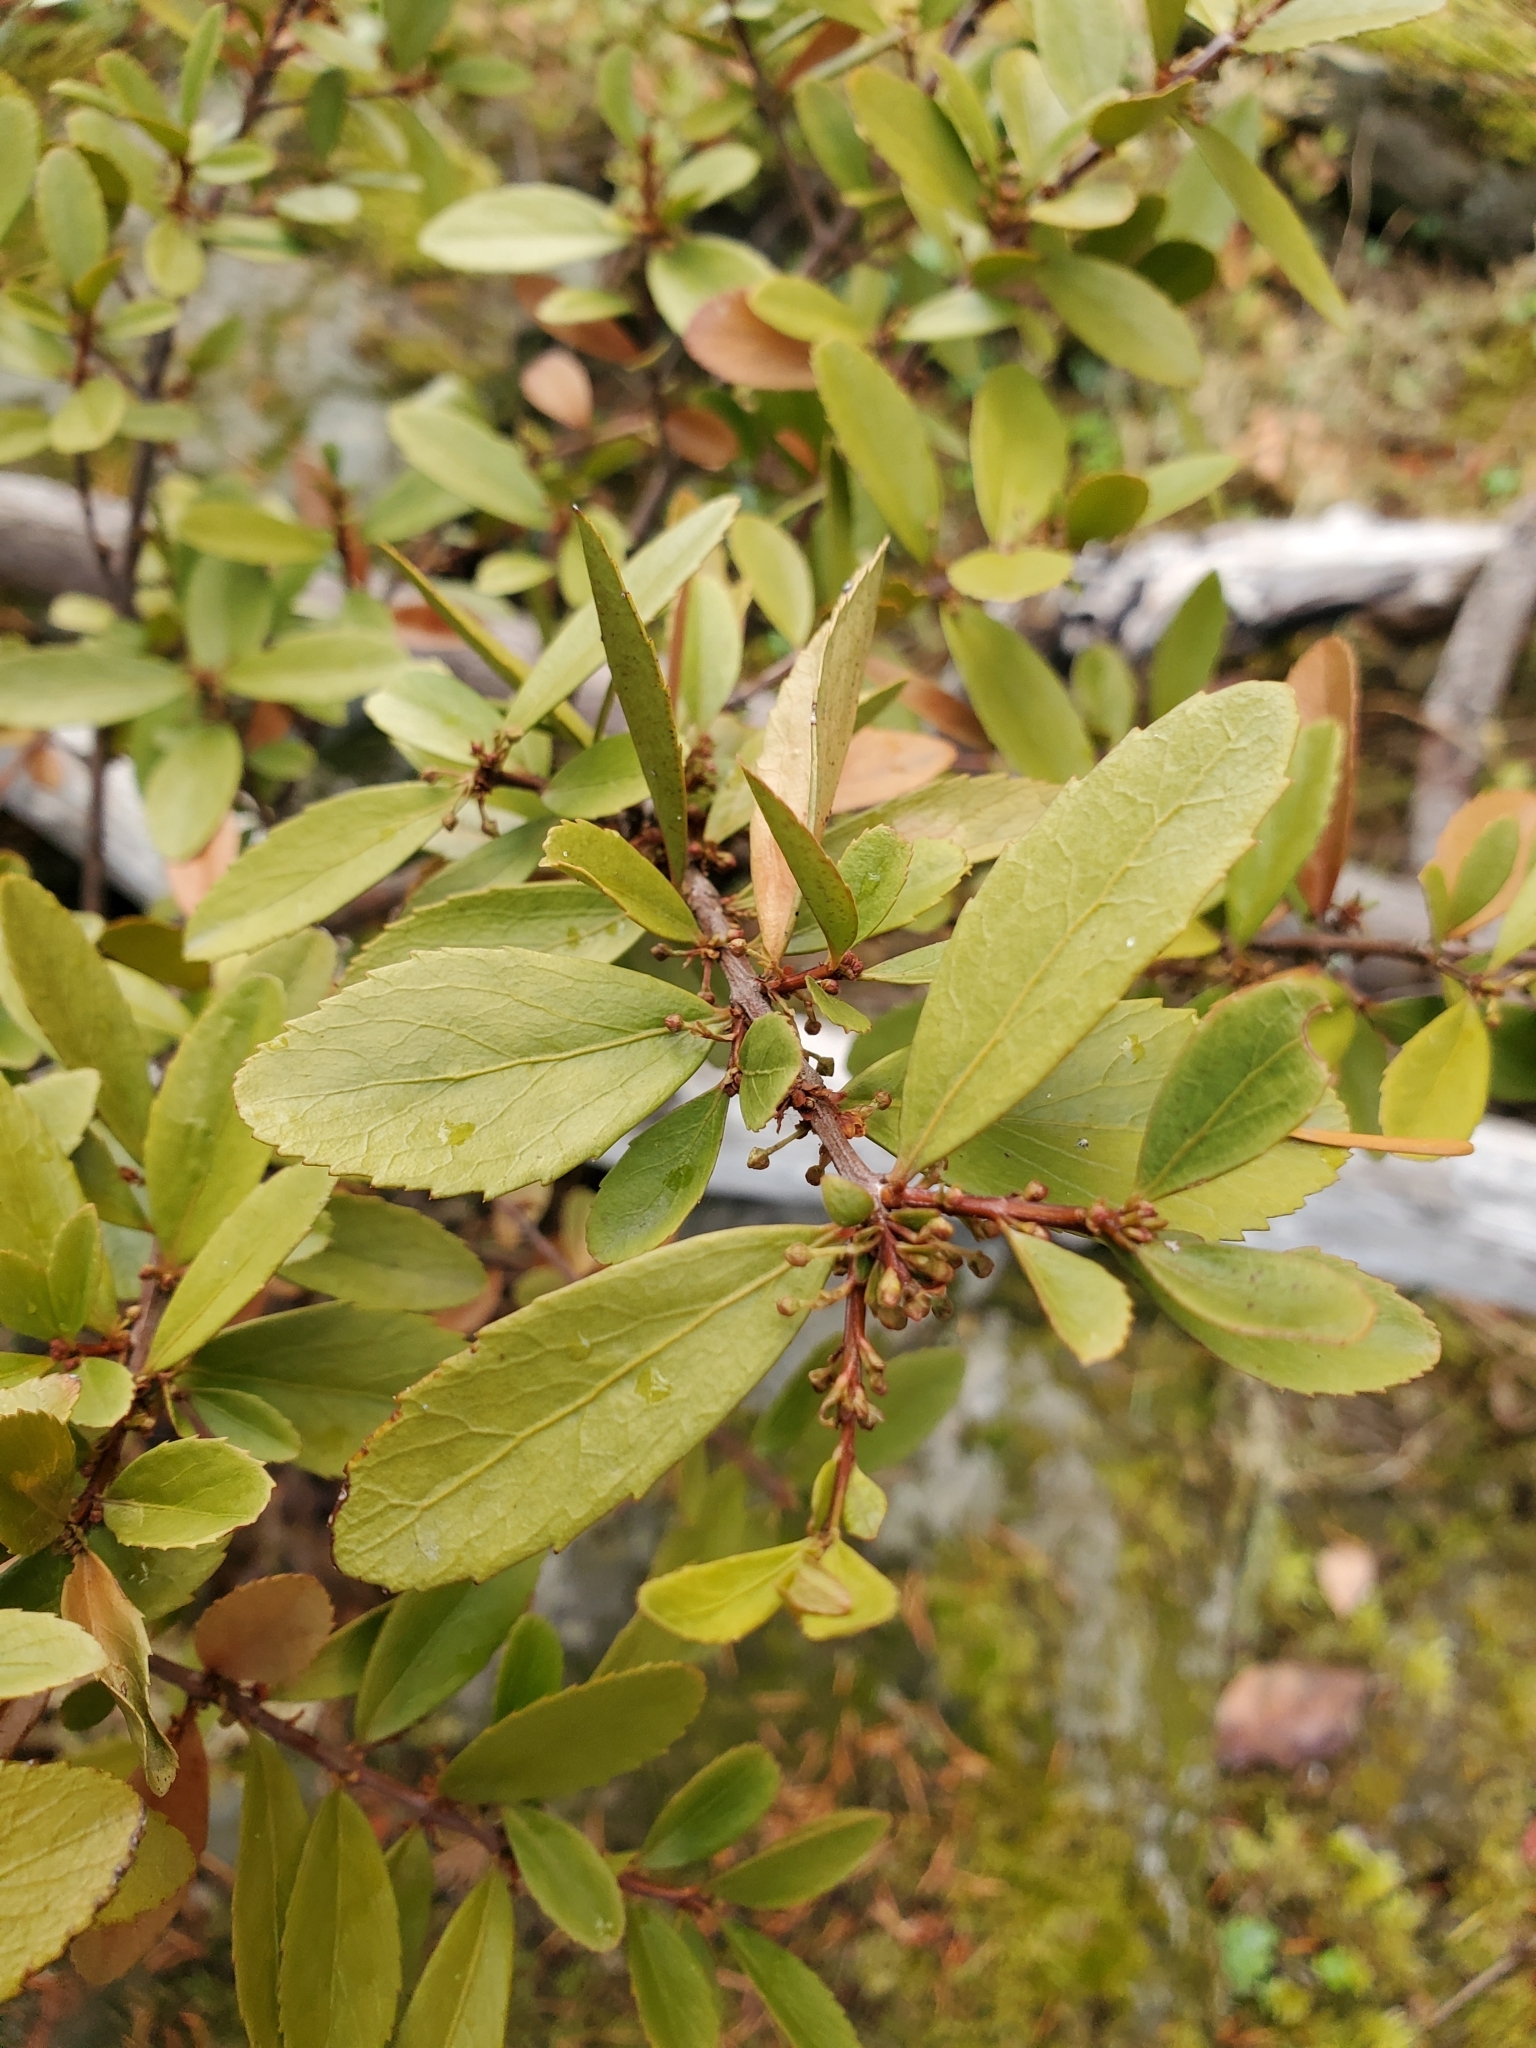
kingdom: Plantae
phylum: Tracheophyta
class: Magnoliopsida
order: Celastrales
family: Celastraceae
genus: Paxistima
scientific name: Paxistima myrsinites
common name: Mountain-lover
